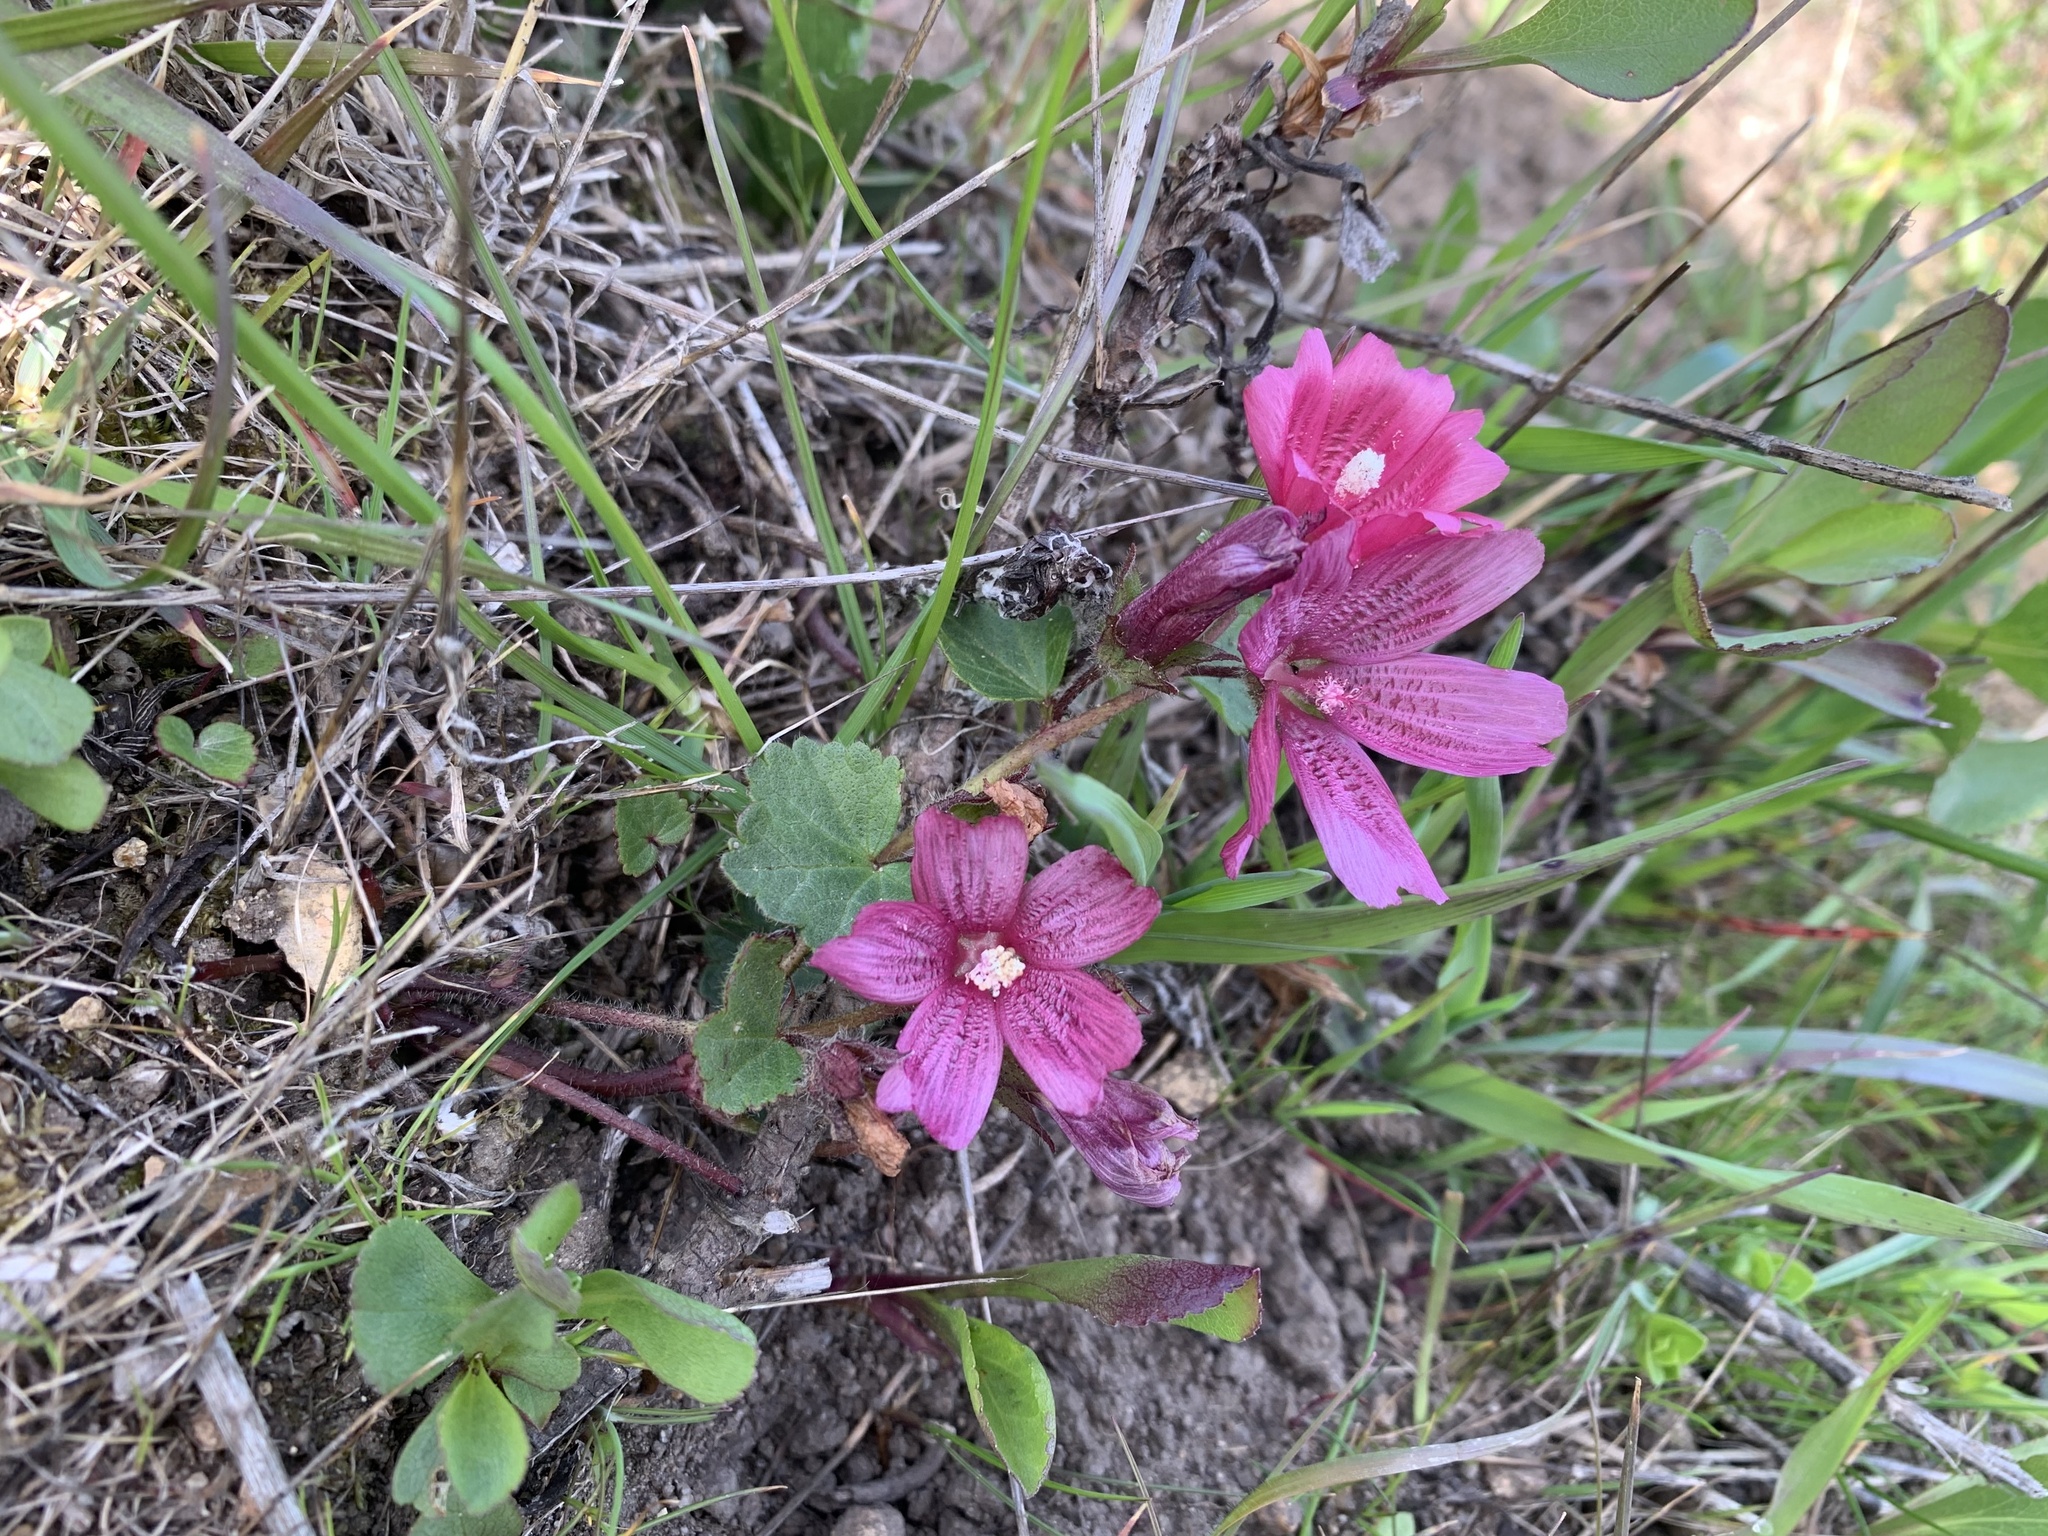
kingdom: Plantae
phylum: Tracheophyta
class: Magnoliopsida
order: Malvales
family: Malvaceae
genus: Sidalcea
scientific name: Sidalcea malviflora
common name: Greek mallow
